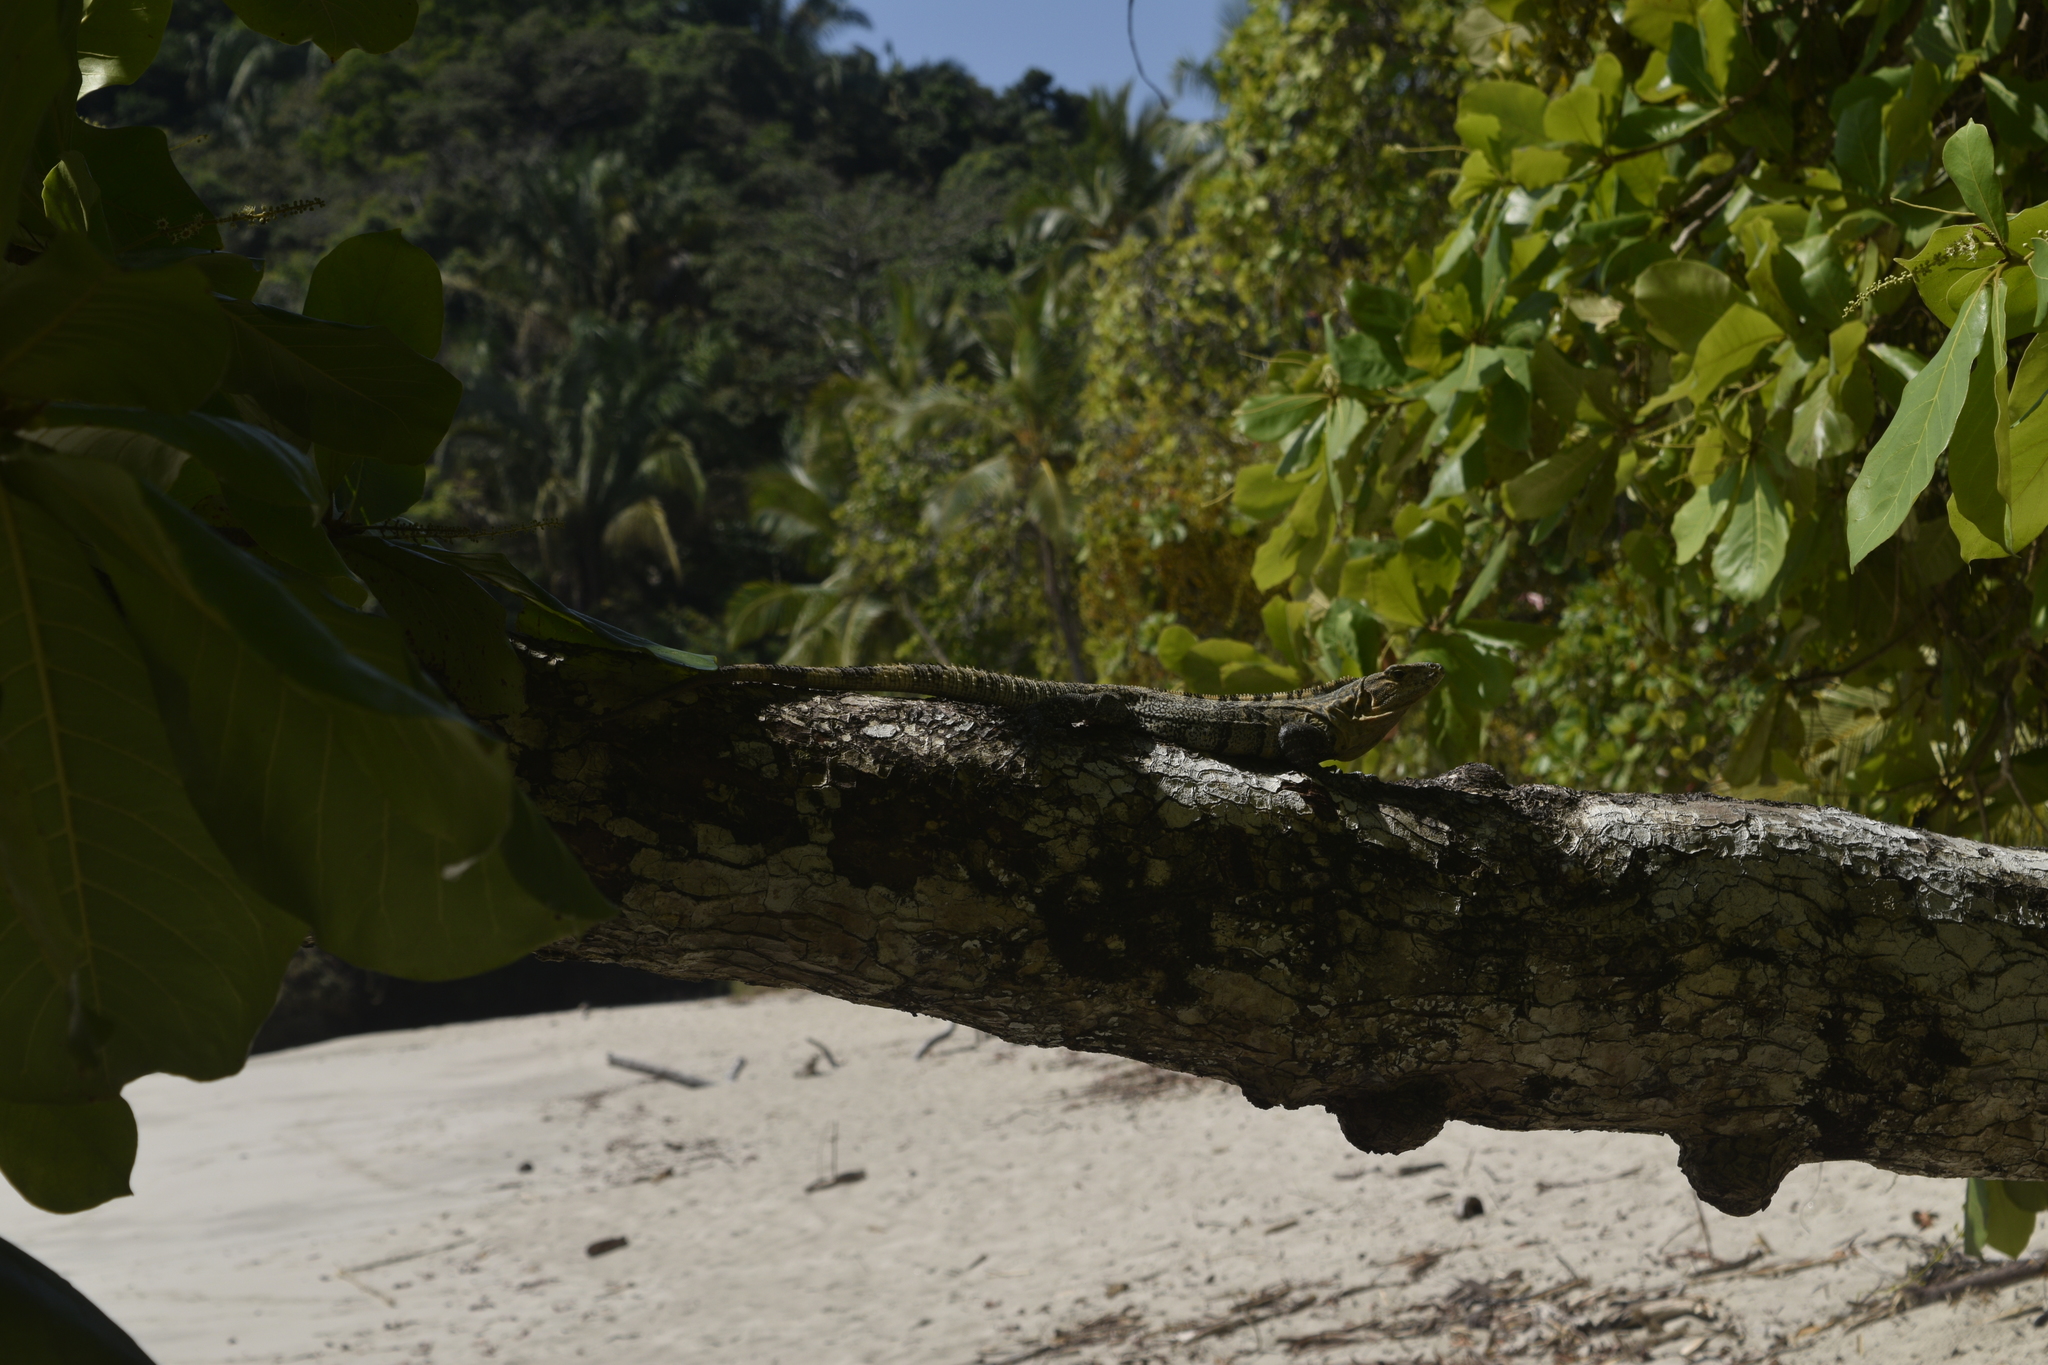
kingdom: Animalia
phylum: Chordata
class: Squamata
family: Iguanidae
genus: Ctenosaura
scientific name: Ctenosaura similis
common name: Black spiny-tailed iguana
